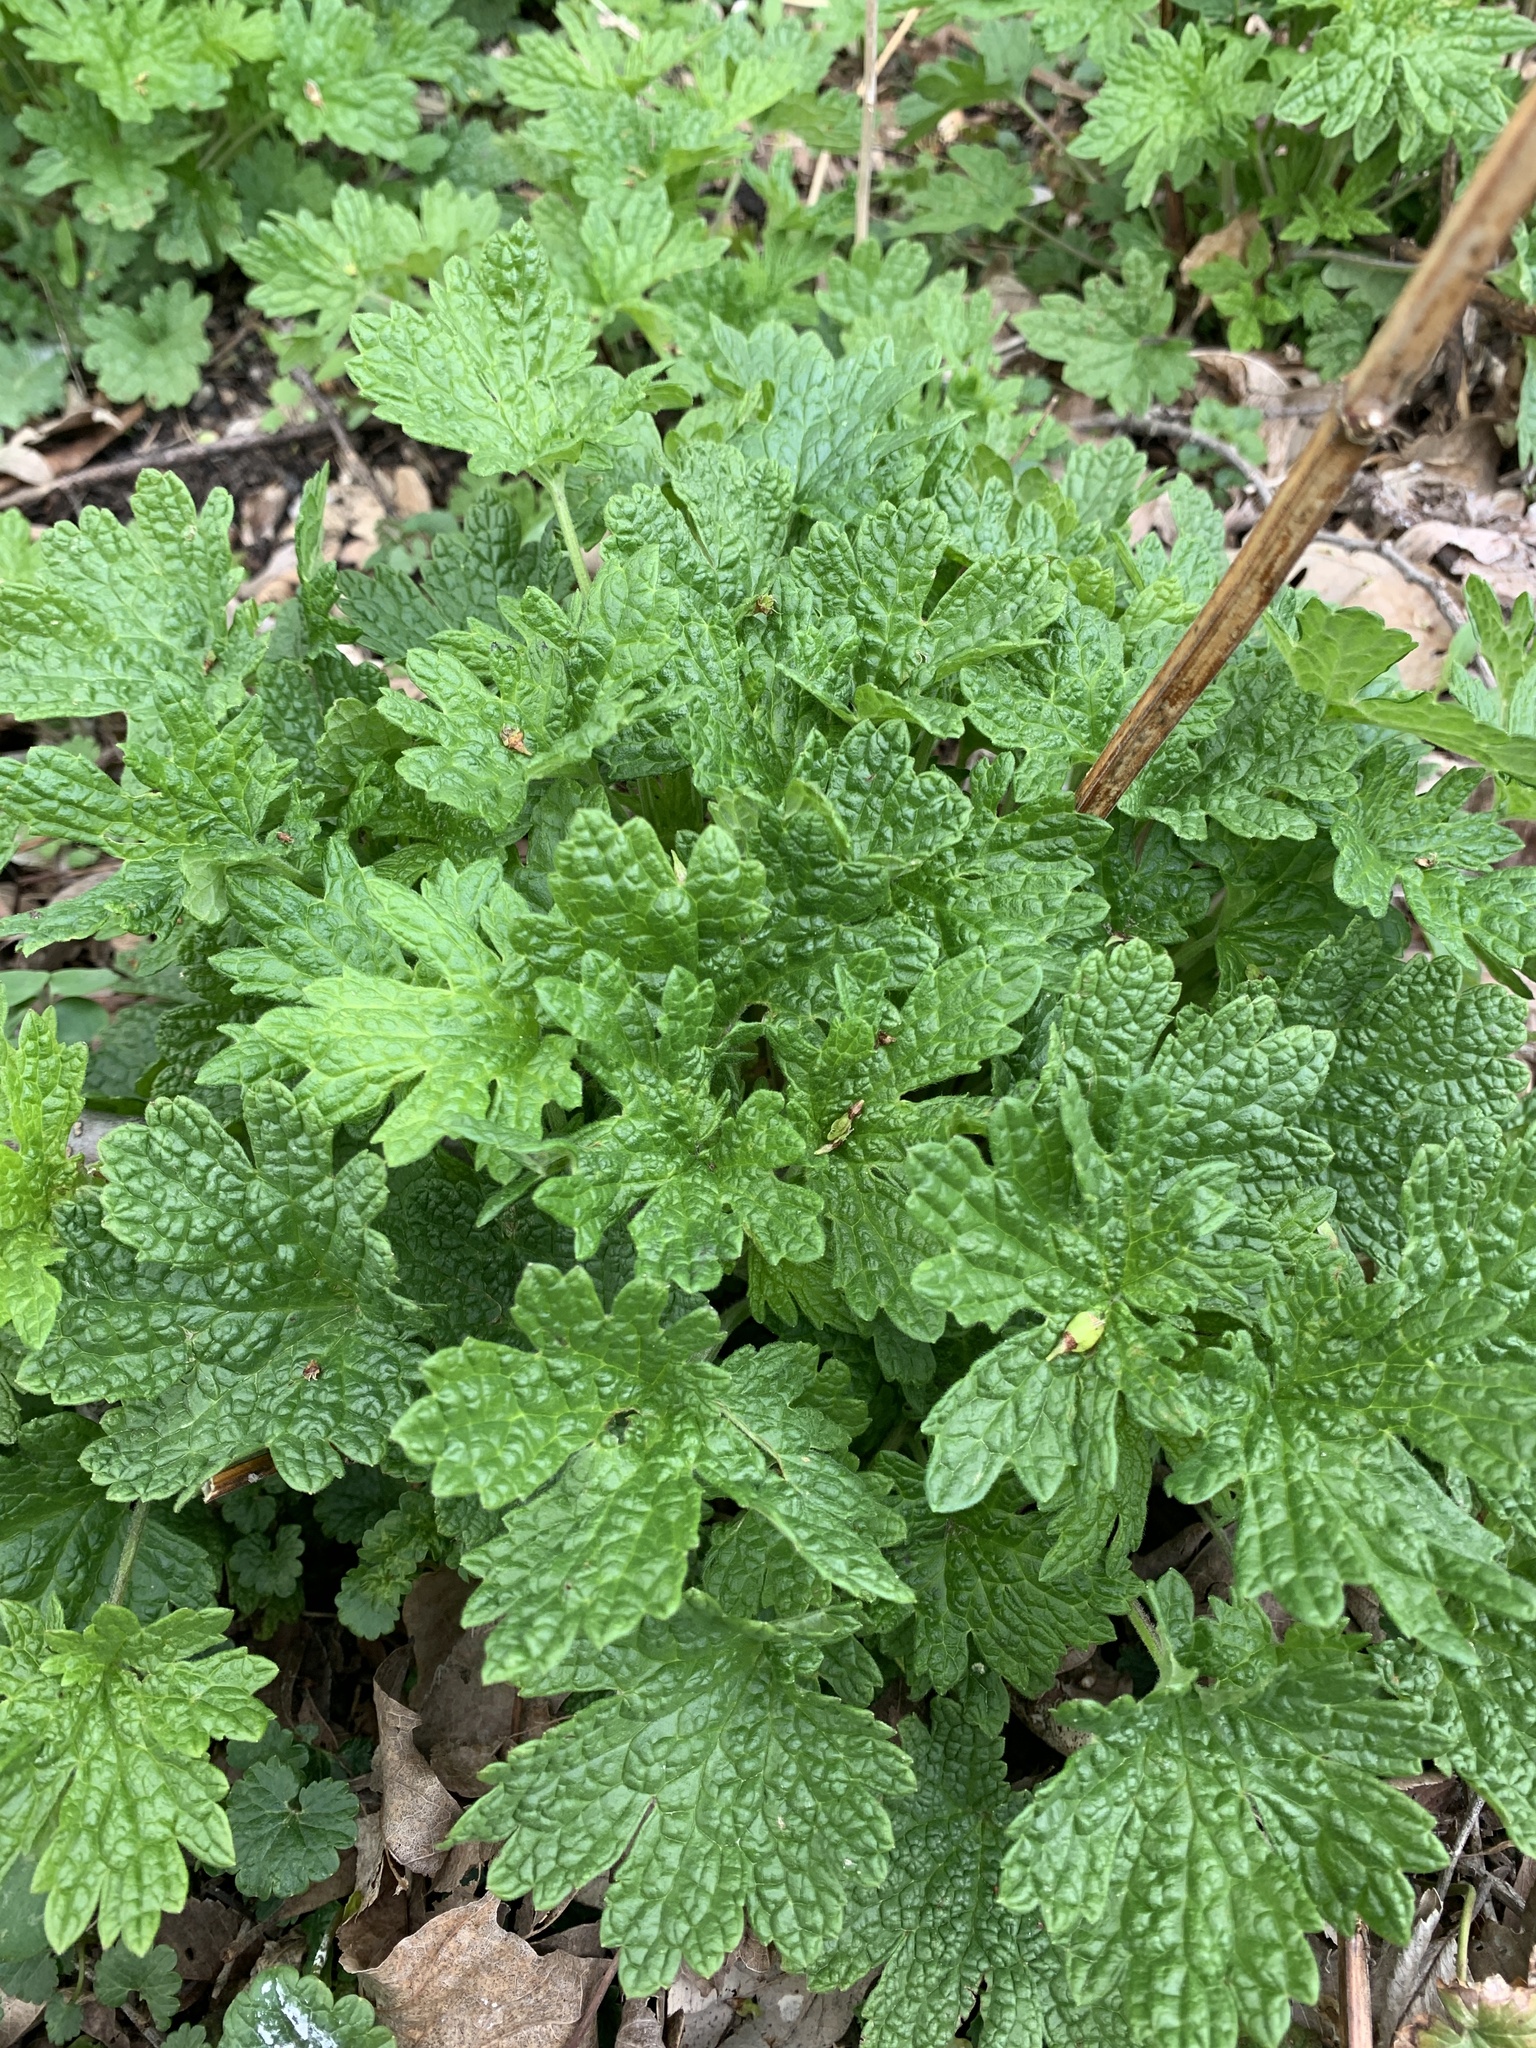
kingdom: Plantae
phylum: Tracheophyta
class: Magnoliopsida
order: Lamiales
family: Lamiaceae
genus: Leonurus
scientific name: Leonurus cardiaca
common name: Motherwort
